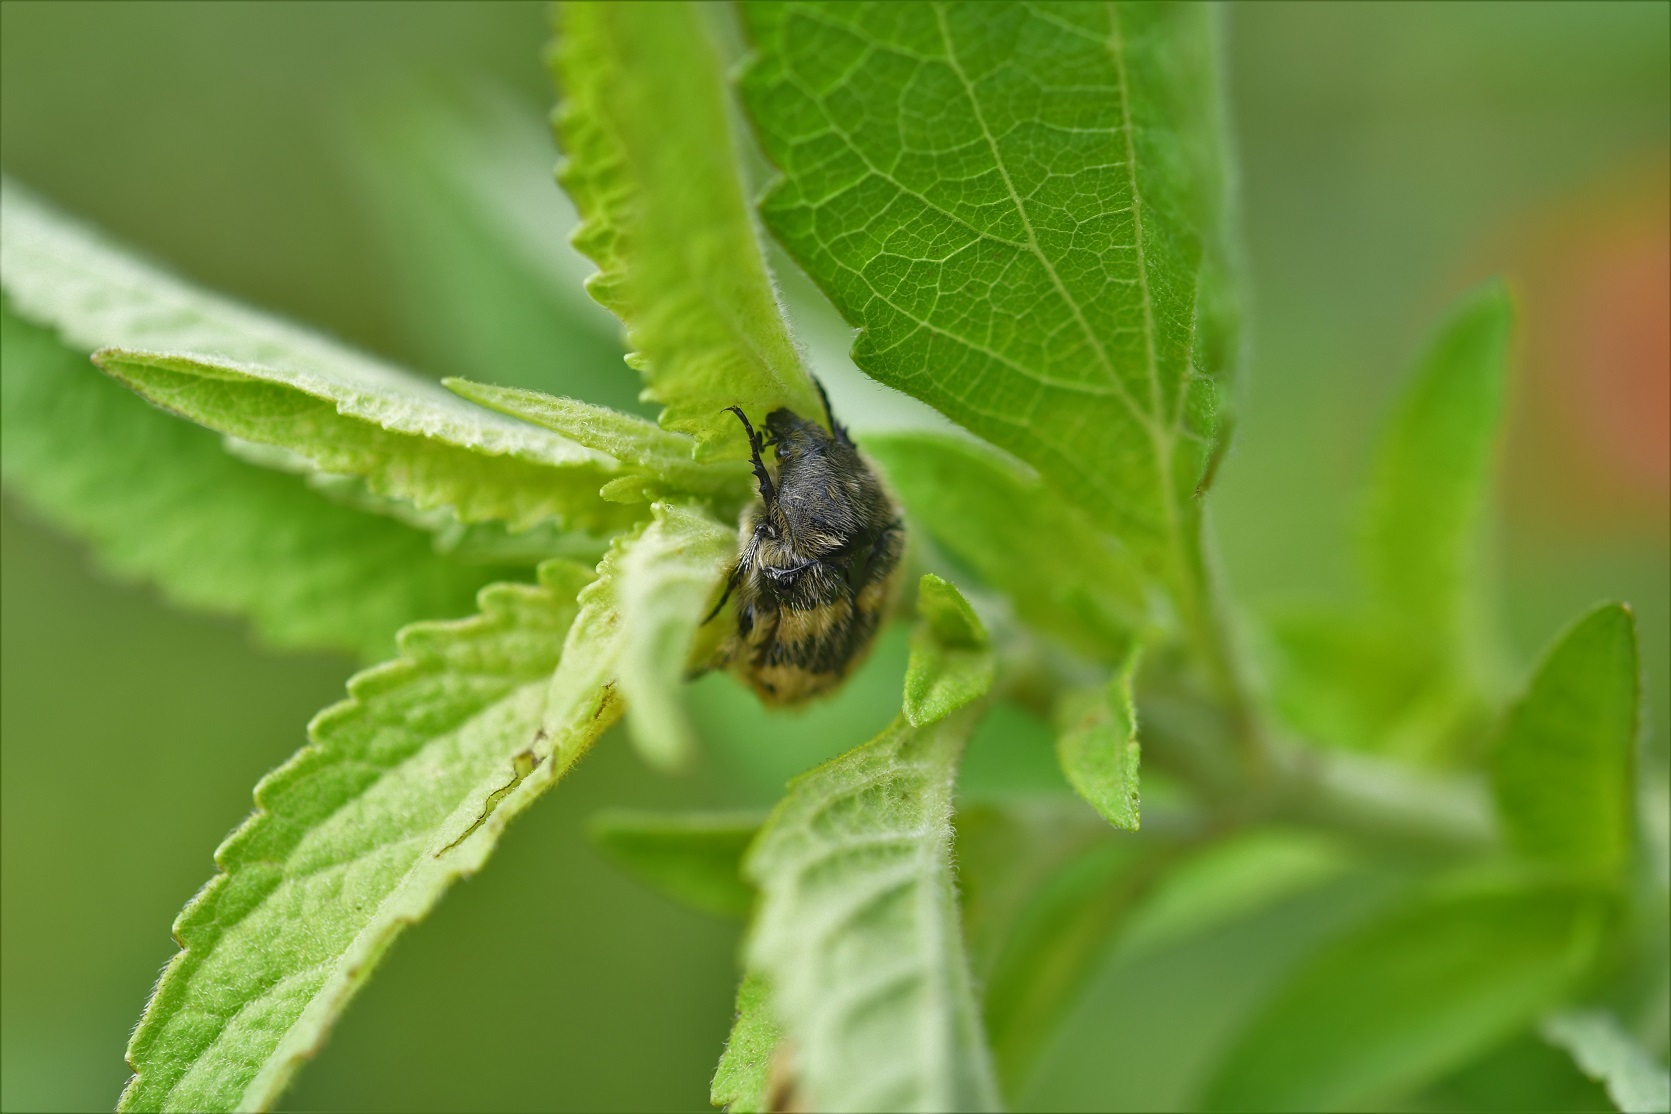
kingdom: Animalia
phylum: Arthropoda
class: Insecta
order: Coleoptera
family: Scarabaeidae
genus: Euphoria
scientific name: Euphoria basalis
